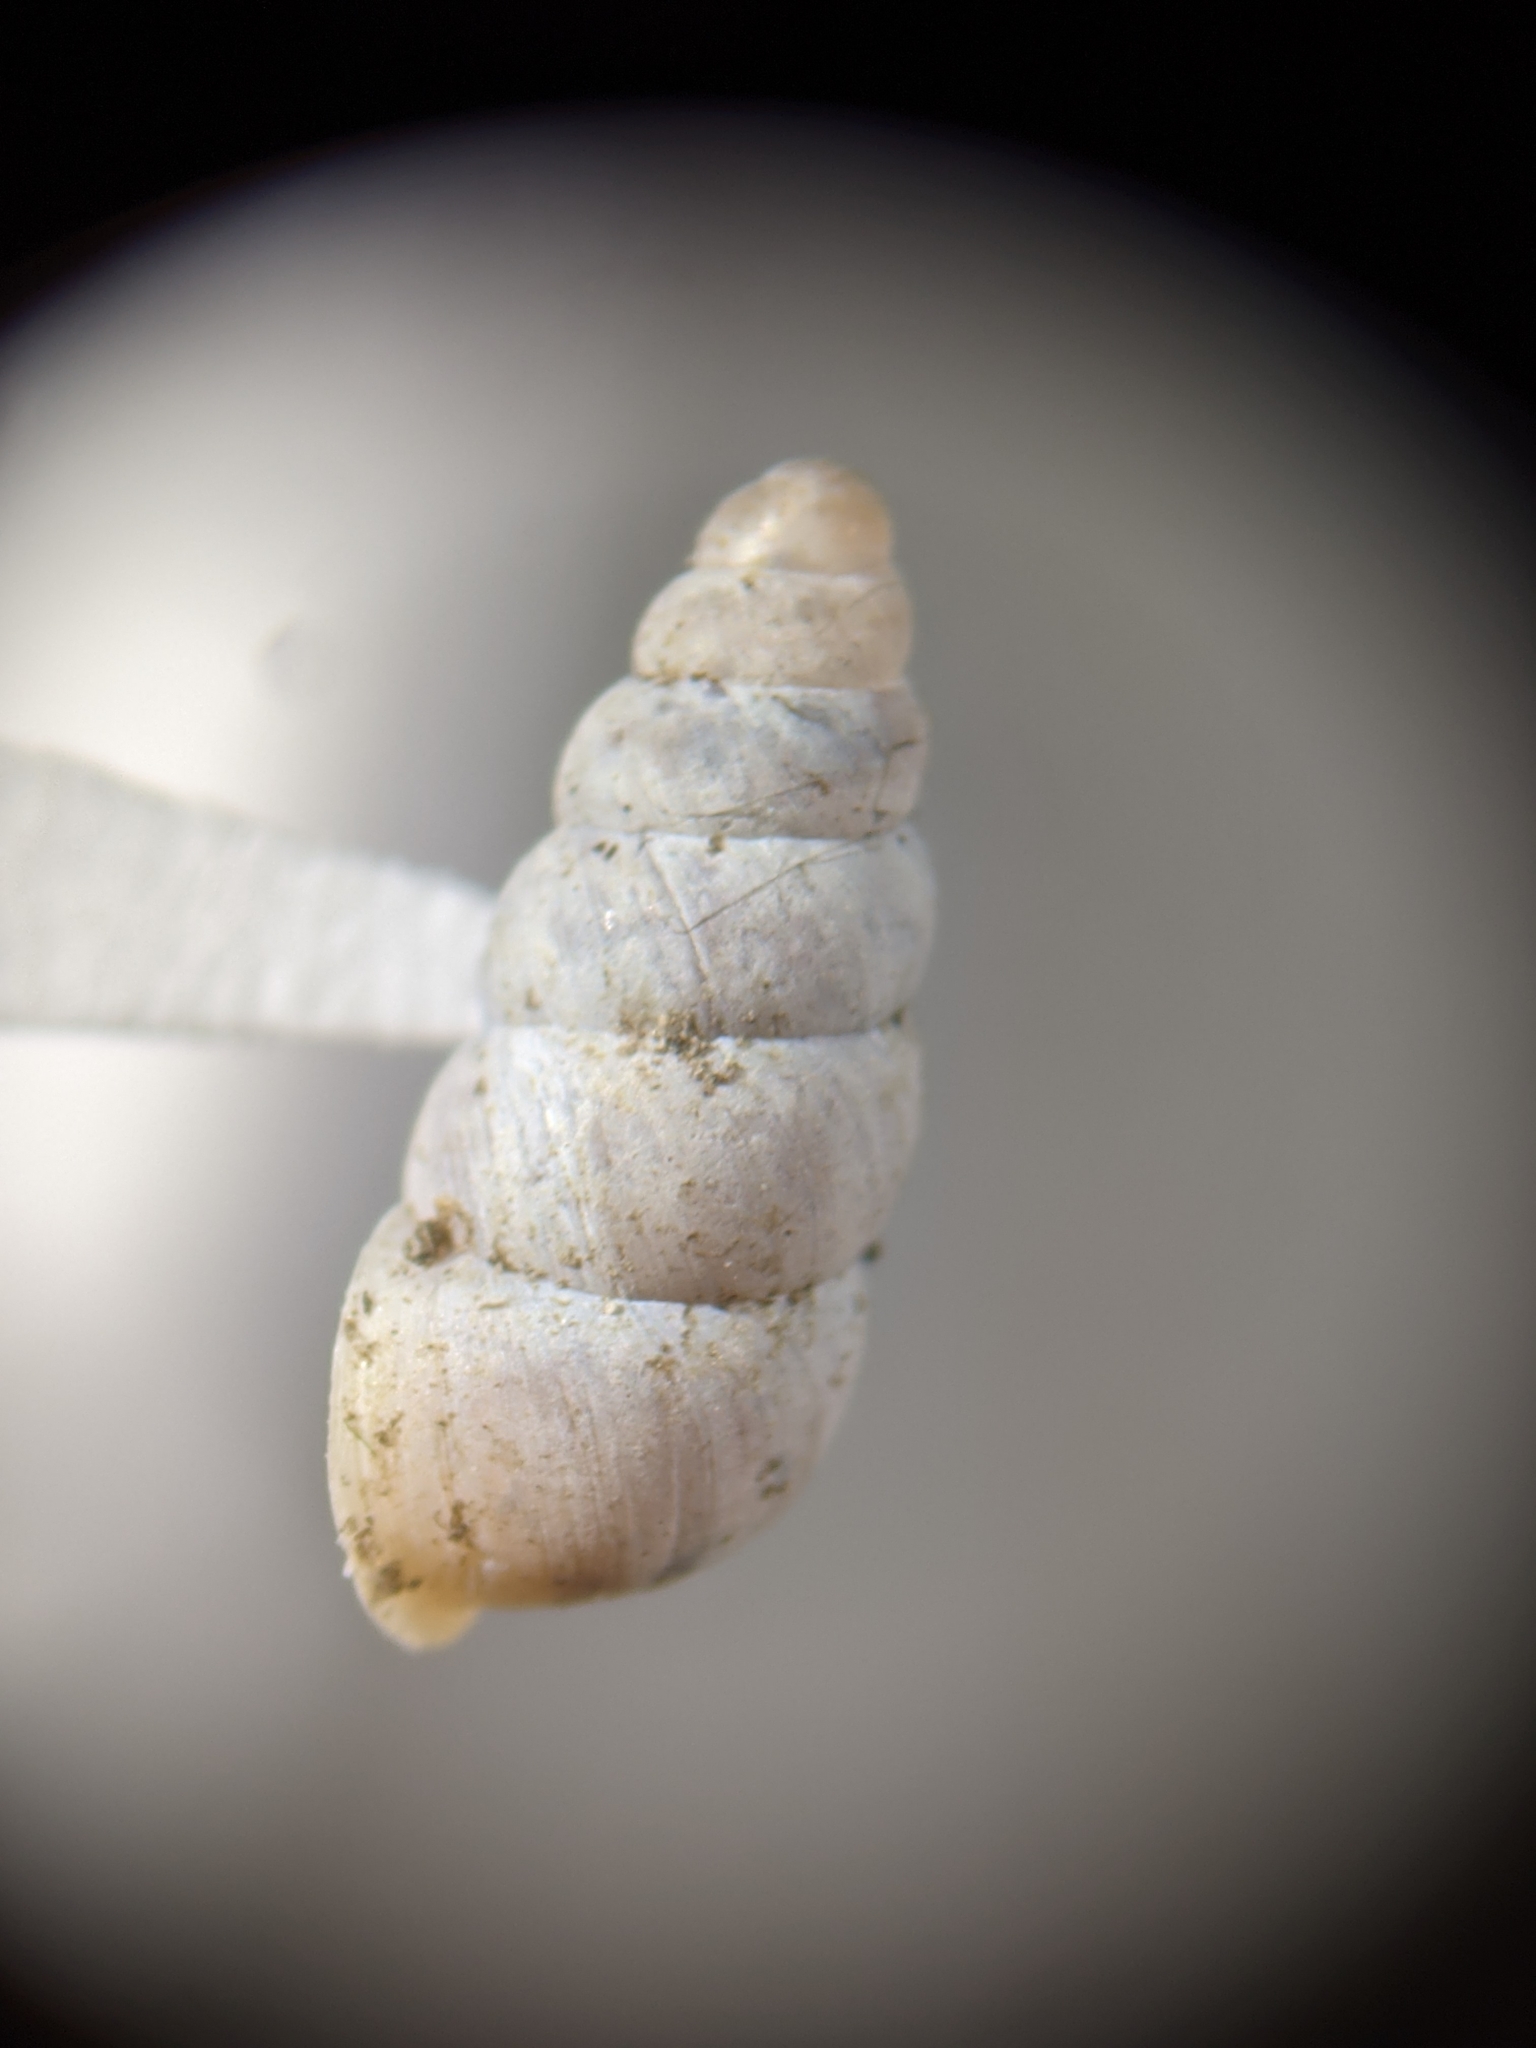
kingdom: Animalia
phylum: Mollusca
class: Gastropoda
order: Stylommatophora
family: Pupillidae
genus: Pupoides
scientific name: Pupoides nitidulus
